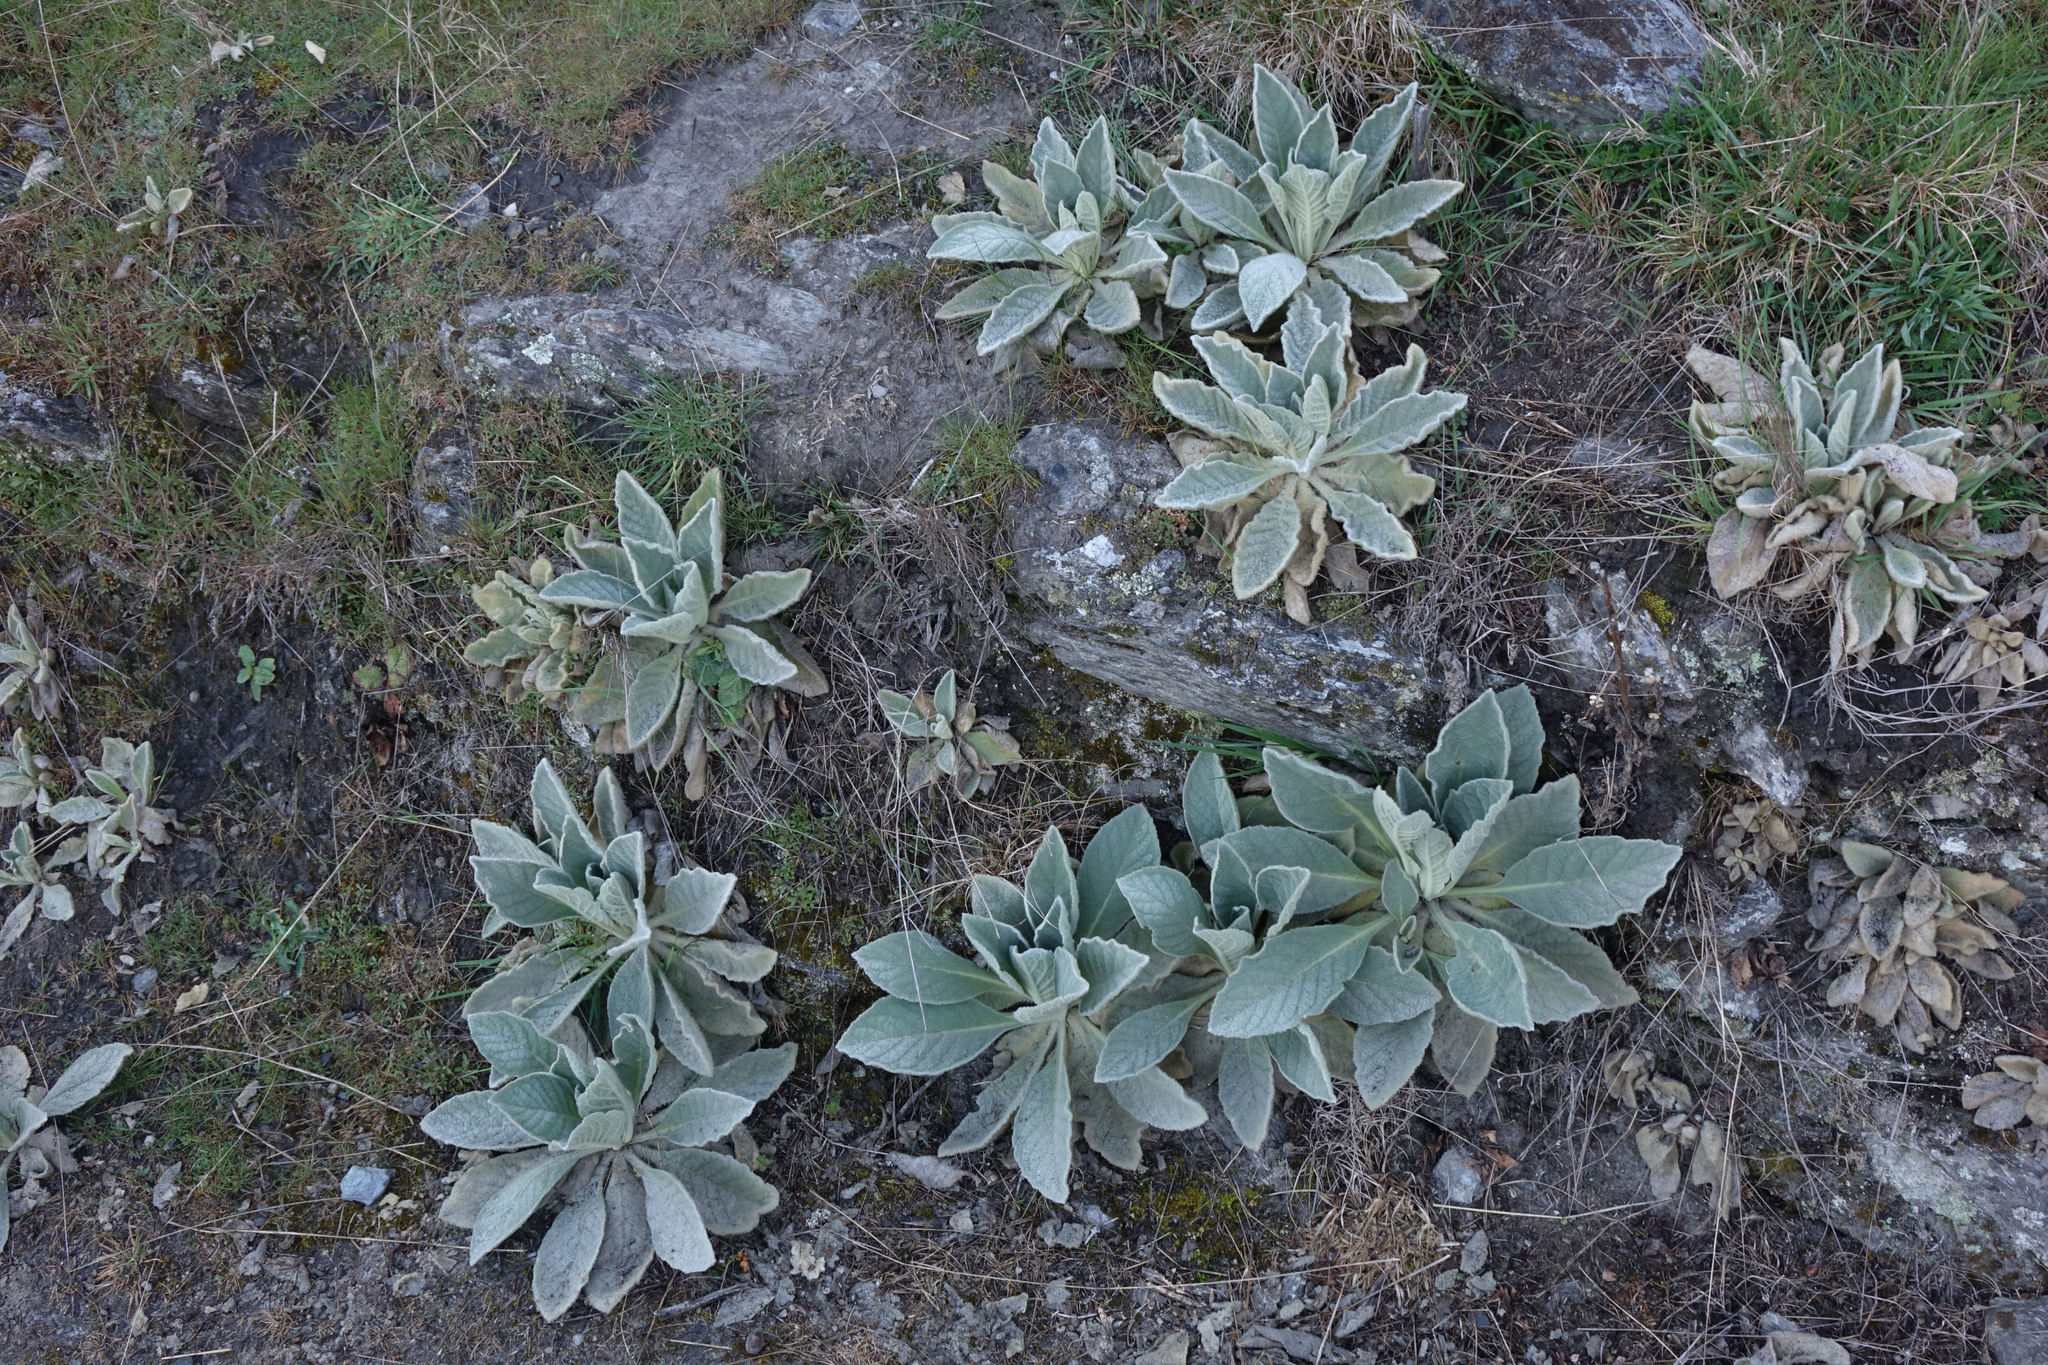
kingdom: Plantae
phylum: Tracheophyta
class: Magnoliopsida
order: Lamiales
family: Scrophulariaceae
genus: Verbascum
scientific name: Verbascum thapsus
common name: Common mullein
